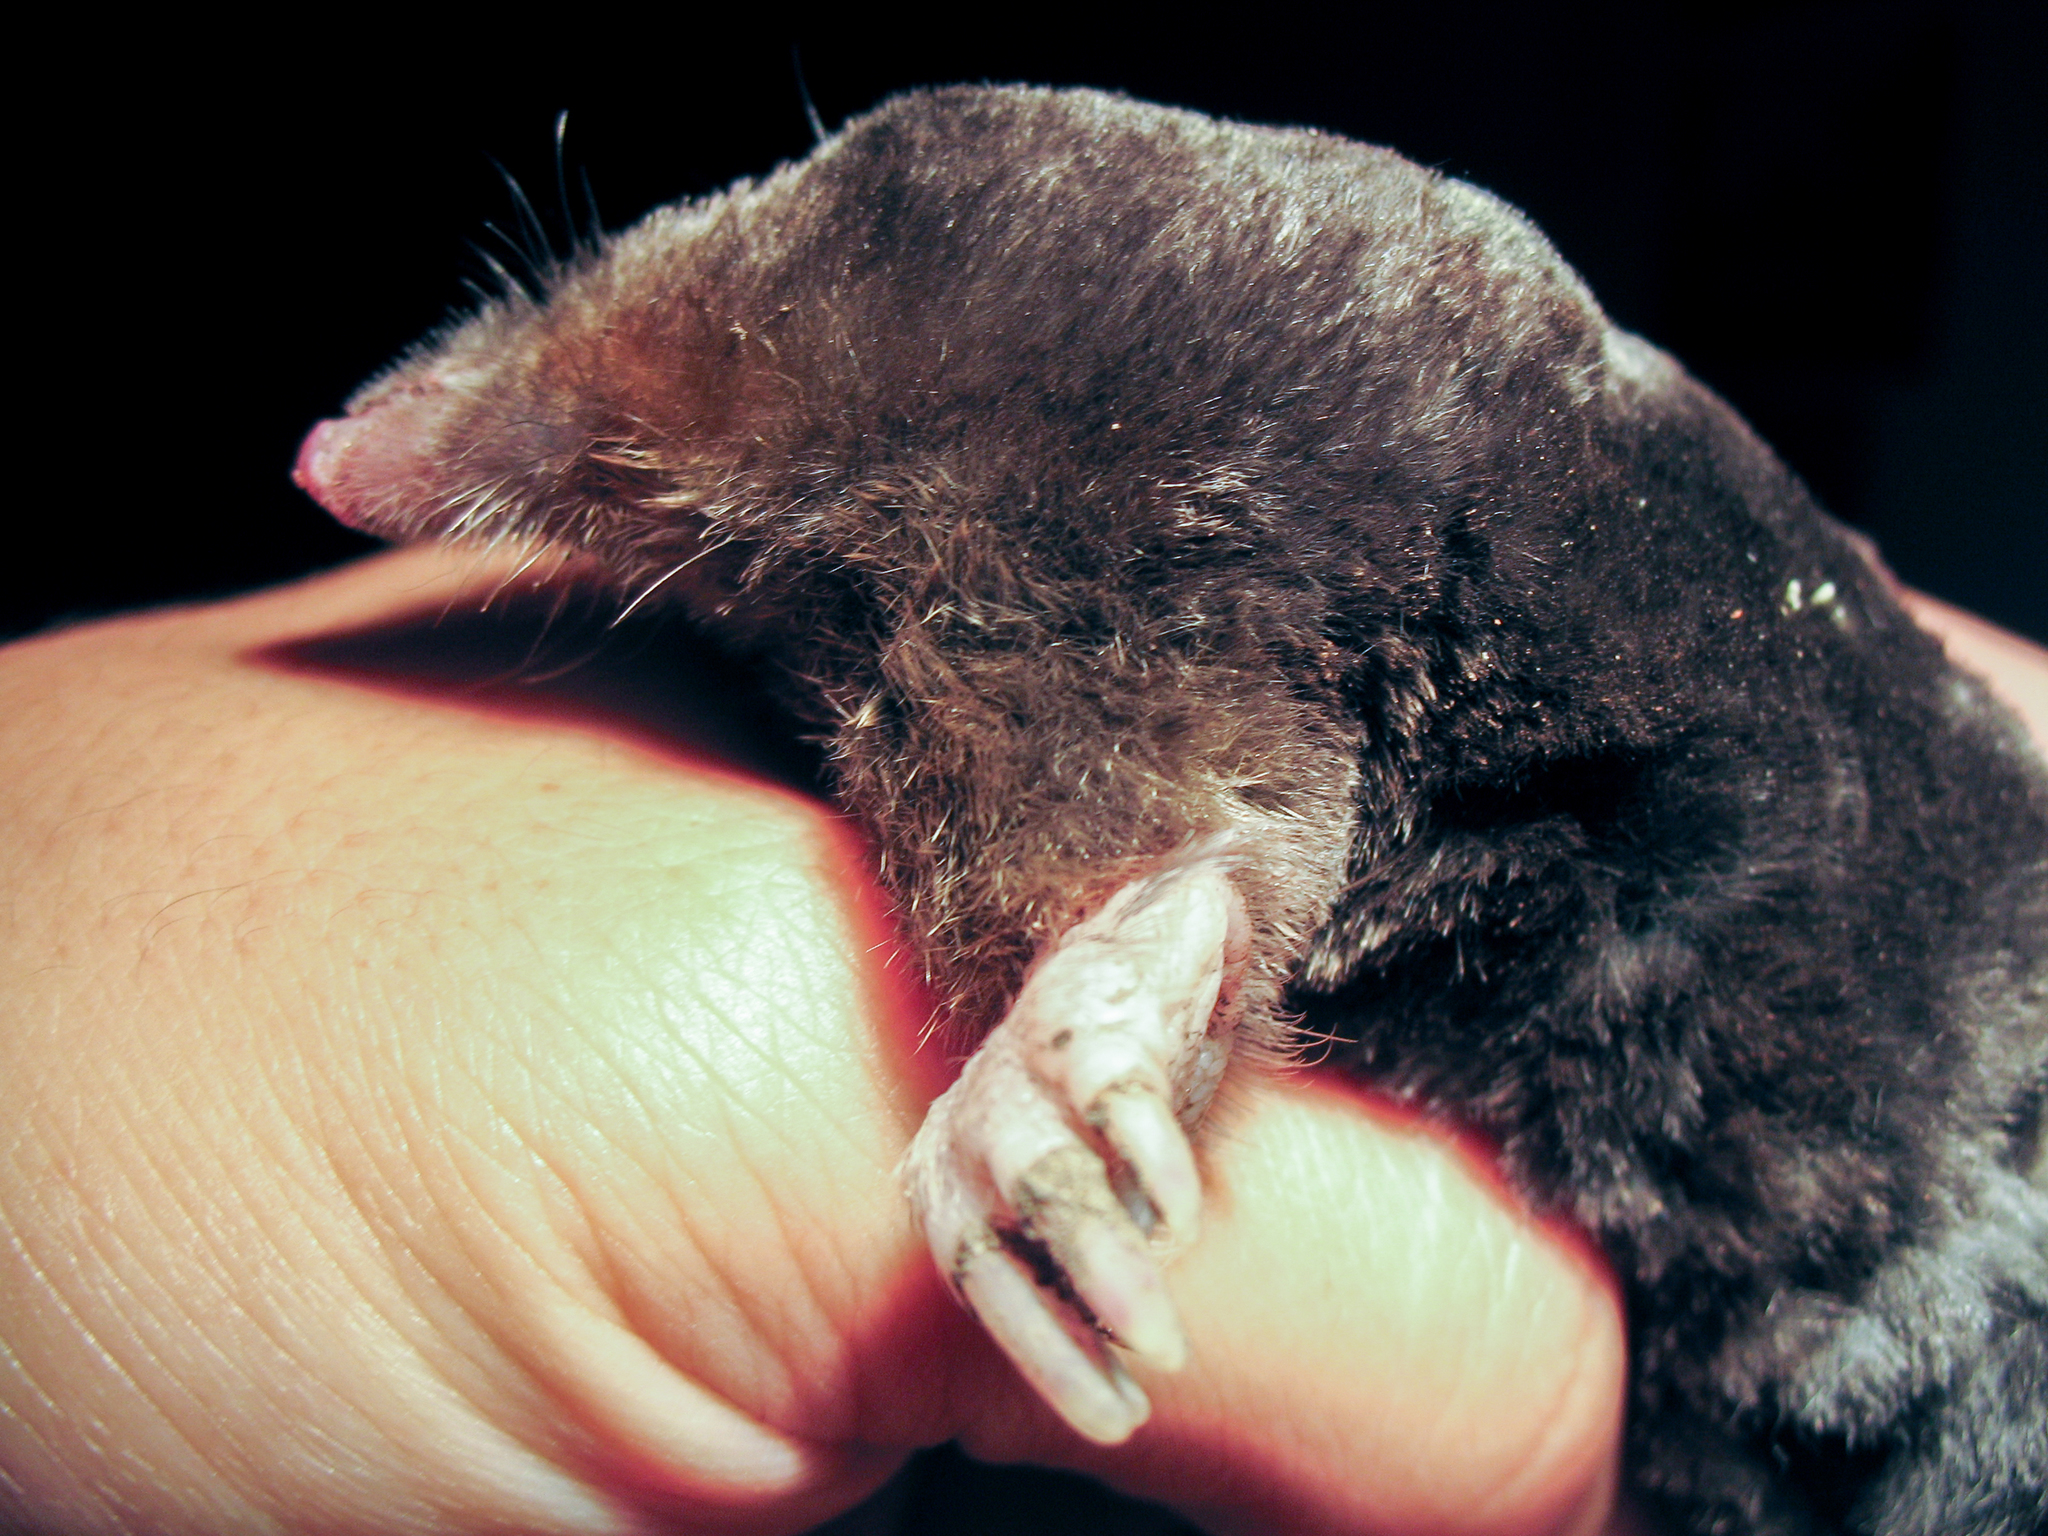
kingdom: Animalia
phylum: Chordata
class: Mammalia
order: Soricomorpha
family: Talpidae
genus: Talpa
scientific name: Talpa europaea
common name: European mole
